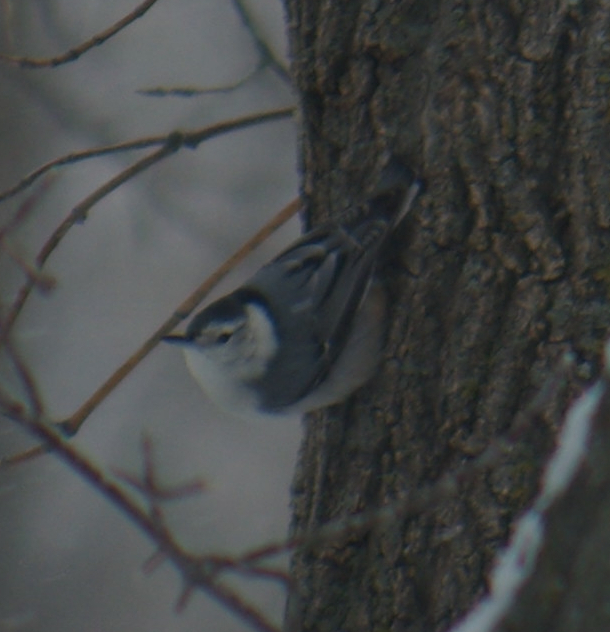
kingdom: Animalia
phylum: Chordata
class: Aves
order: Passeriformes
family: Sittidae
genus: Sitta
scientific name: Sitta carolinensis
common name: White-breasted nuthatch
